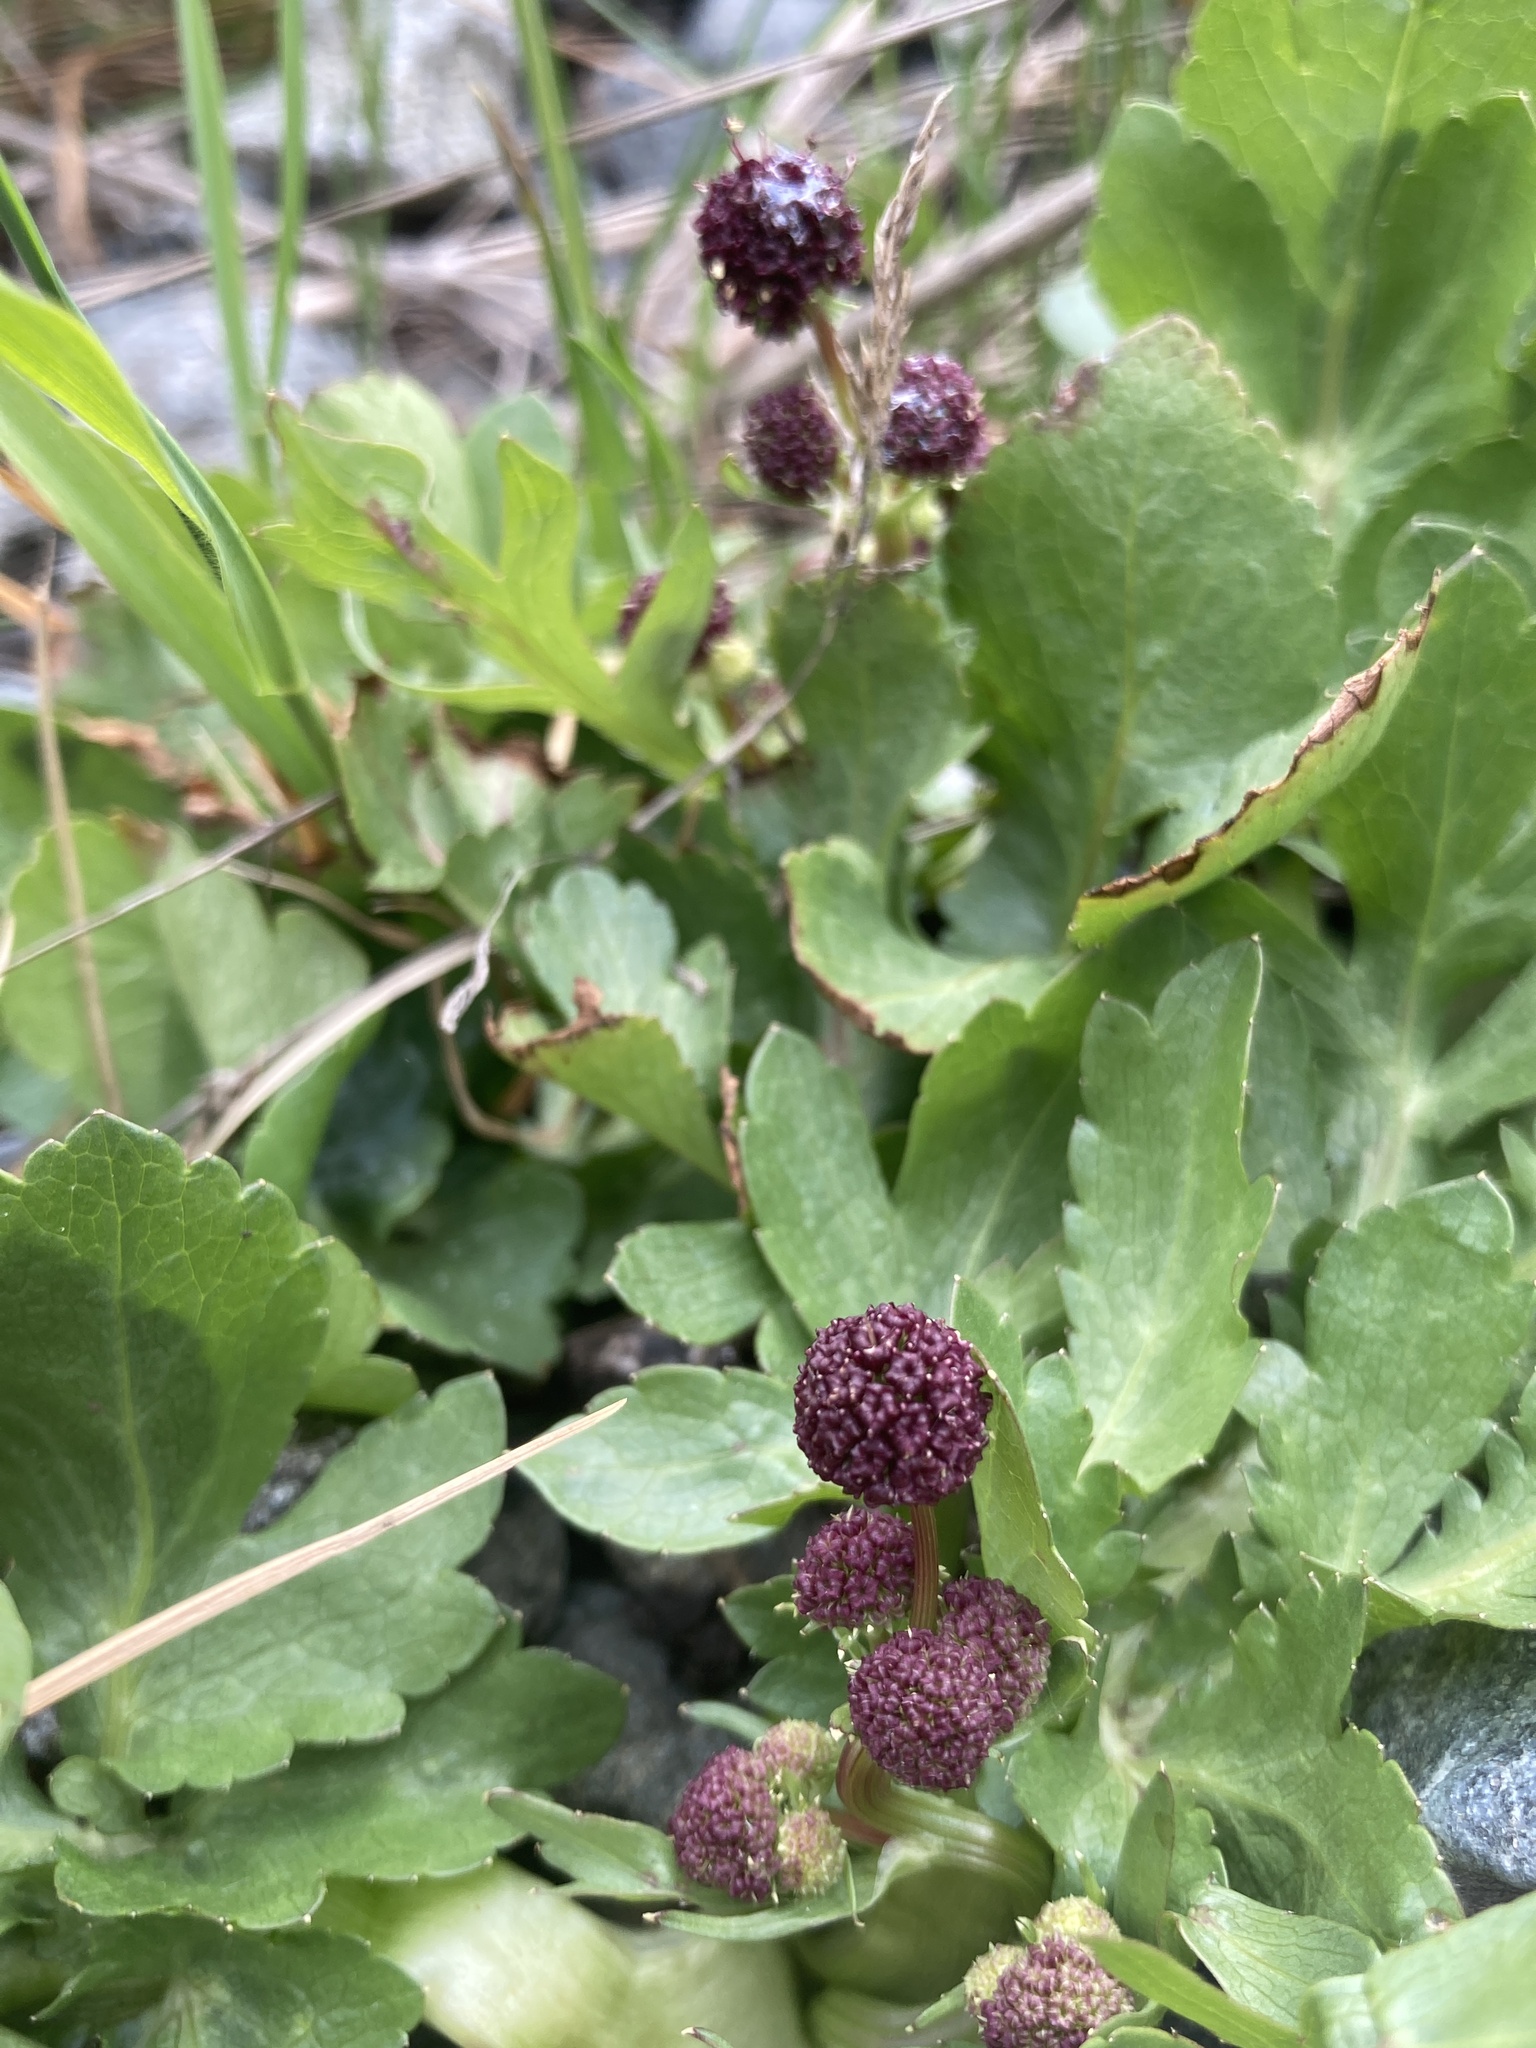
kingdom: Plantae
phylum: Tracheophyta
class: Magnoliopsida
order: Apiales
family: Apiaceae
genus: Sanicula
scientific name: Sanicula bipinnatifida
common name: Shoe-buttons
